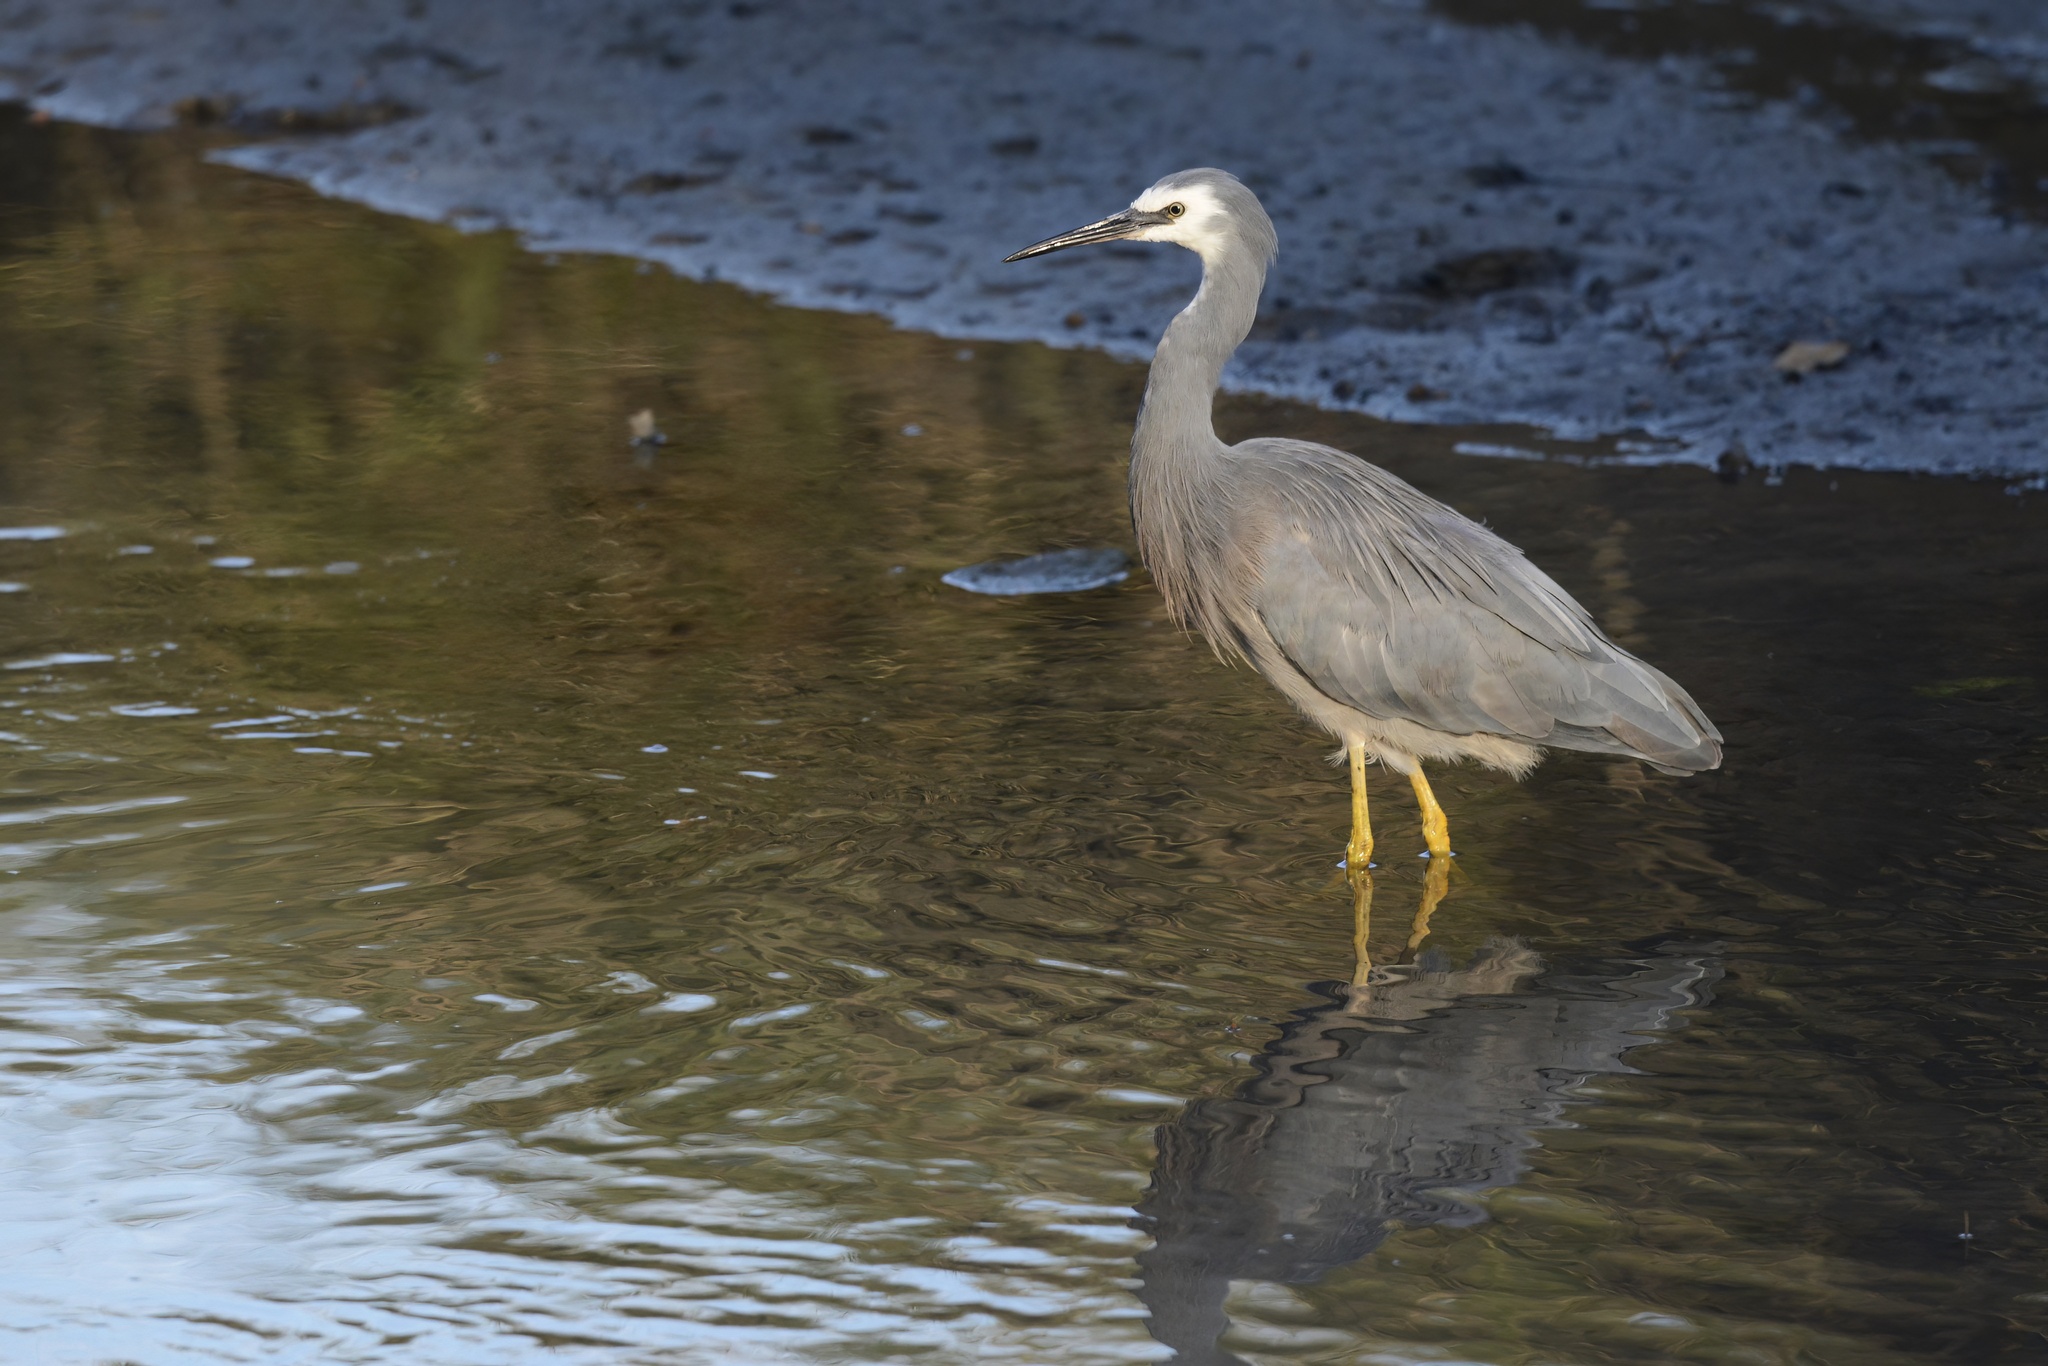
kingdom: Animalia
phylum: Chordata
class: Aves
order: Pelecaniformes
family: Ardeidae
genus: Egretta
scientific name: Egretta novaehollandiae
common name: White-faced heron
